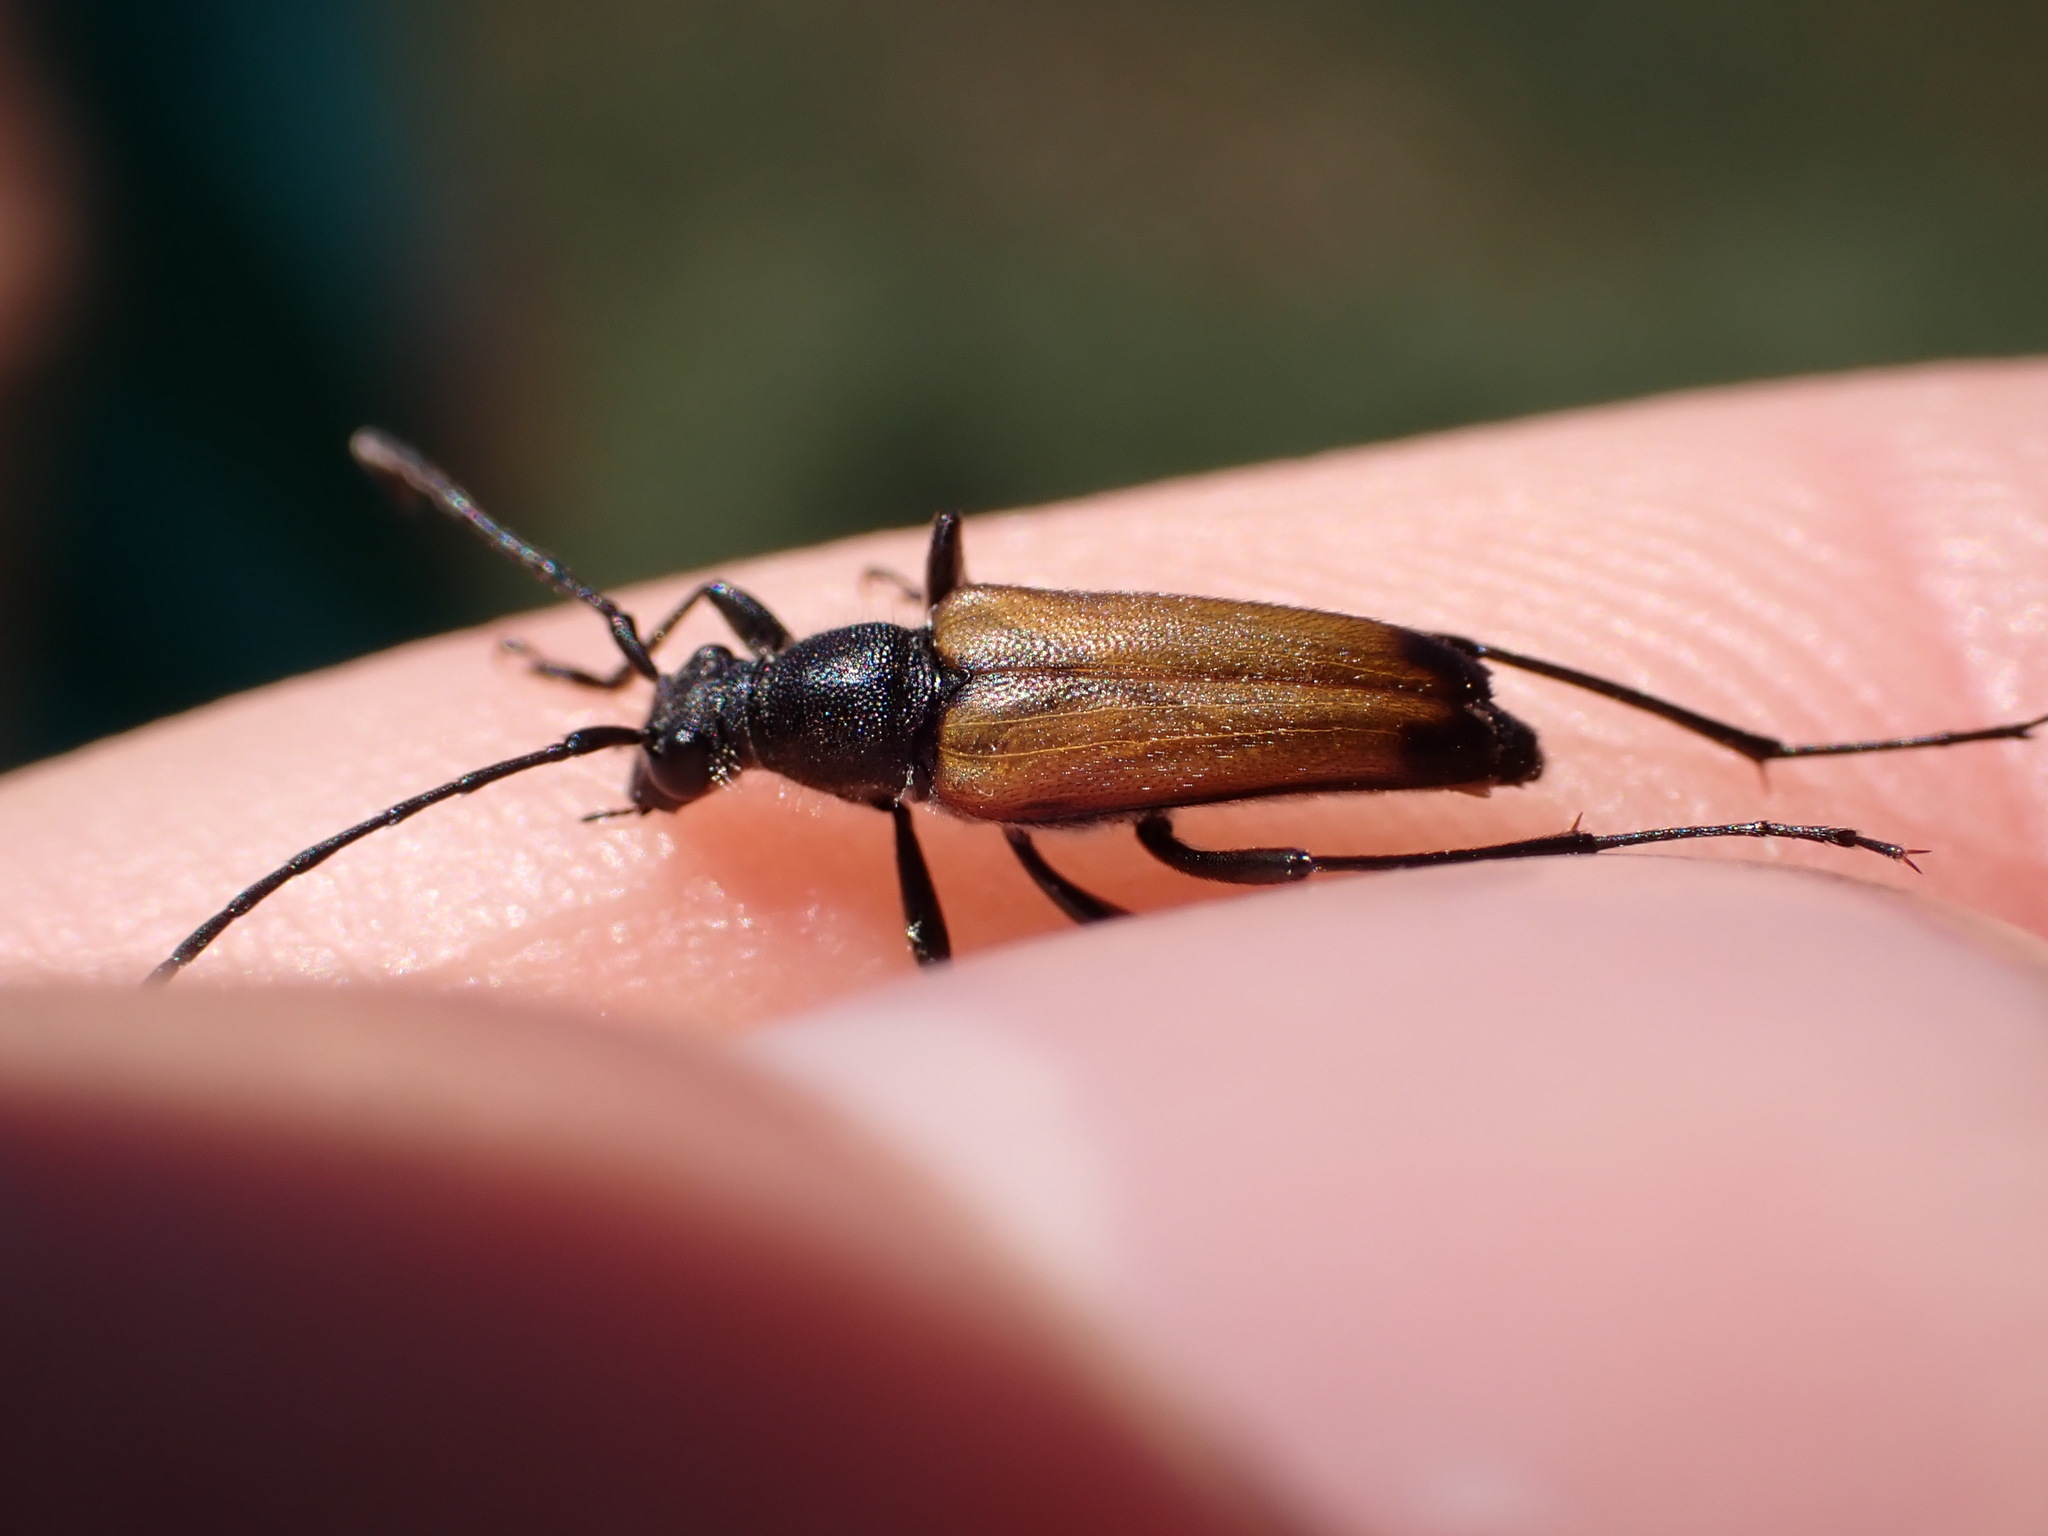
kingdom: Animalia
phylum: Arthropoda
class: Insecta
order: Coleoptera
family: Cerambycidae
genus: Anastrangalia
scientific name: Anastrangalia sanguinolenta
